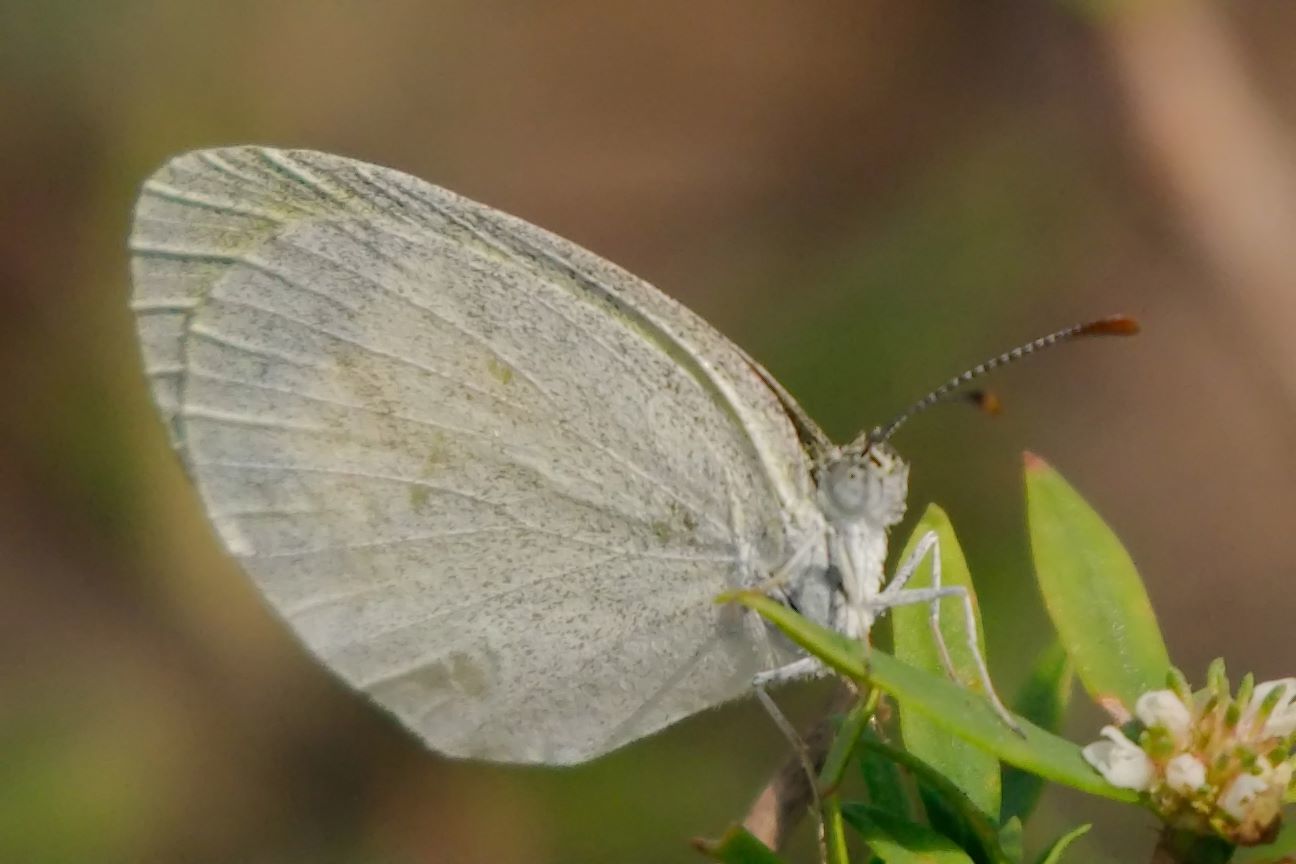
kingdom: Animalia
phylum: Arthropoda
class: Insecta
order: Lepidoptera
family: Pieridae
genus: Eurema
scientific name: Eurema daira
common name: Barred sulphur
